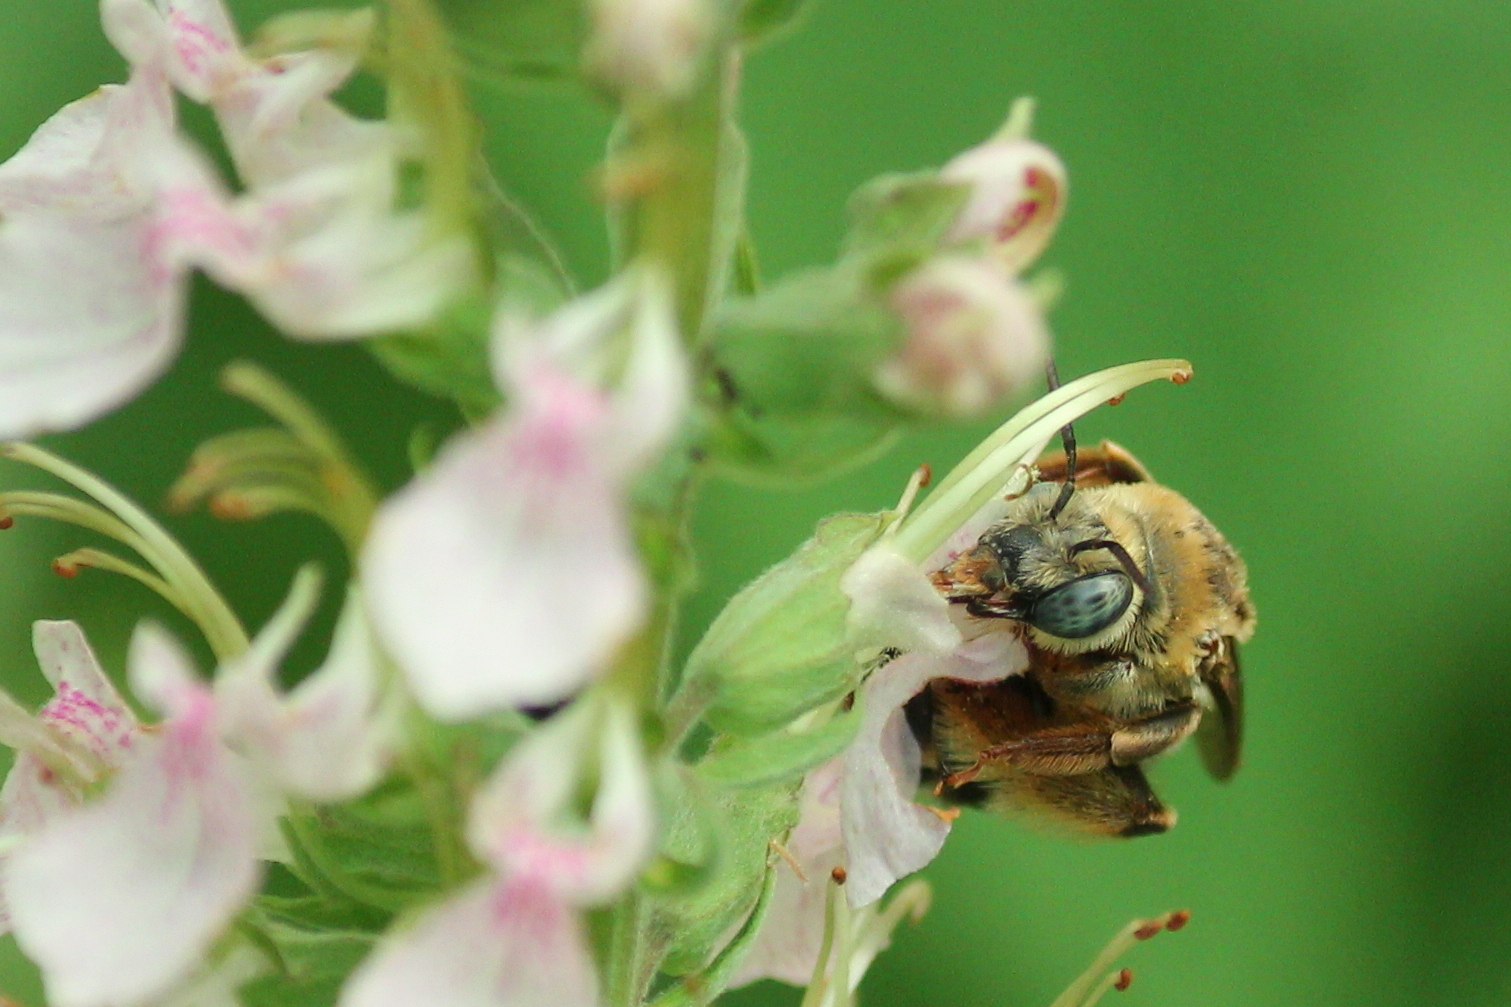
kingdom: Animalia
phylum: Arthropoda
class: Insecta
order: Hymenoptera
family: Apidae
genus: Melissodes
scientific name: Melissodes communis
